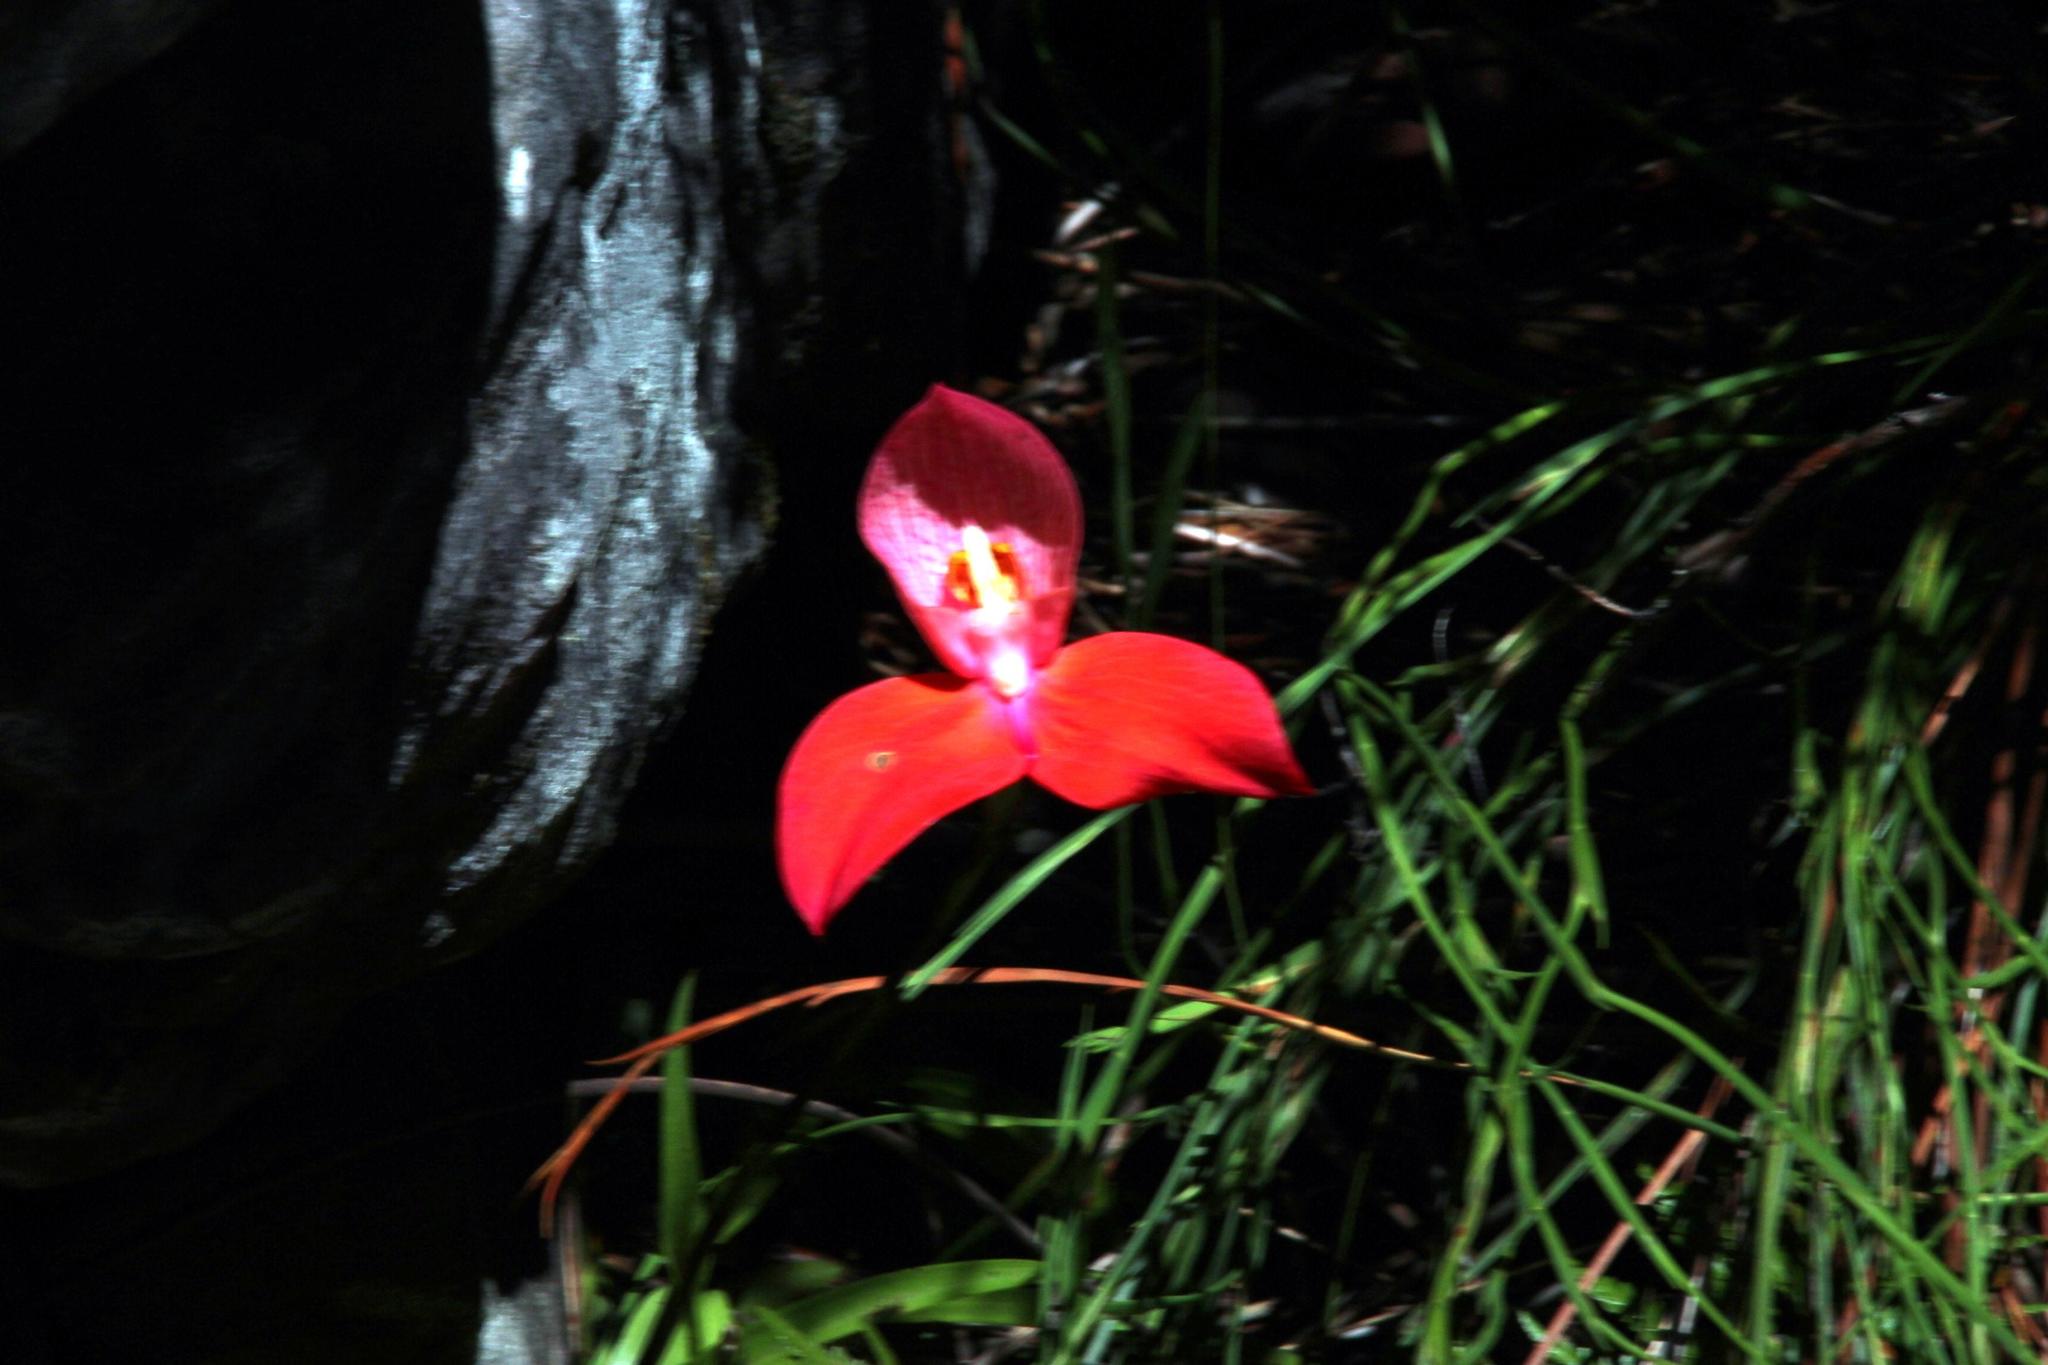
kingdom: Plantae
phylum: Tracheophyta
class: Liliopsida
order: Asparagales
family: Orchidaceae
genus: Disa
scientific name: Disa uniflora
